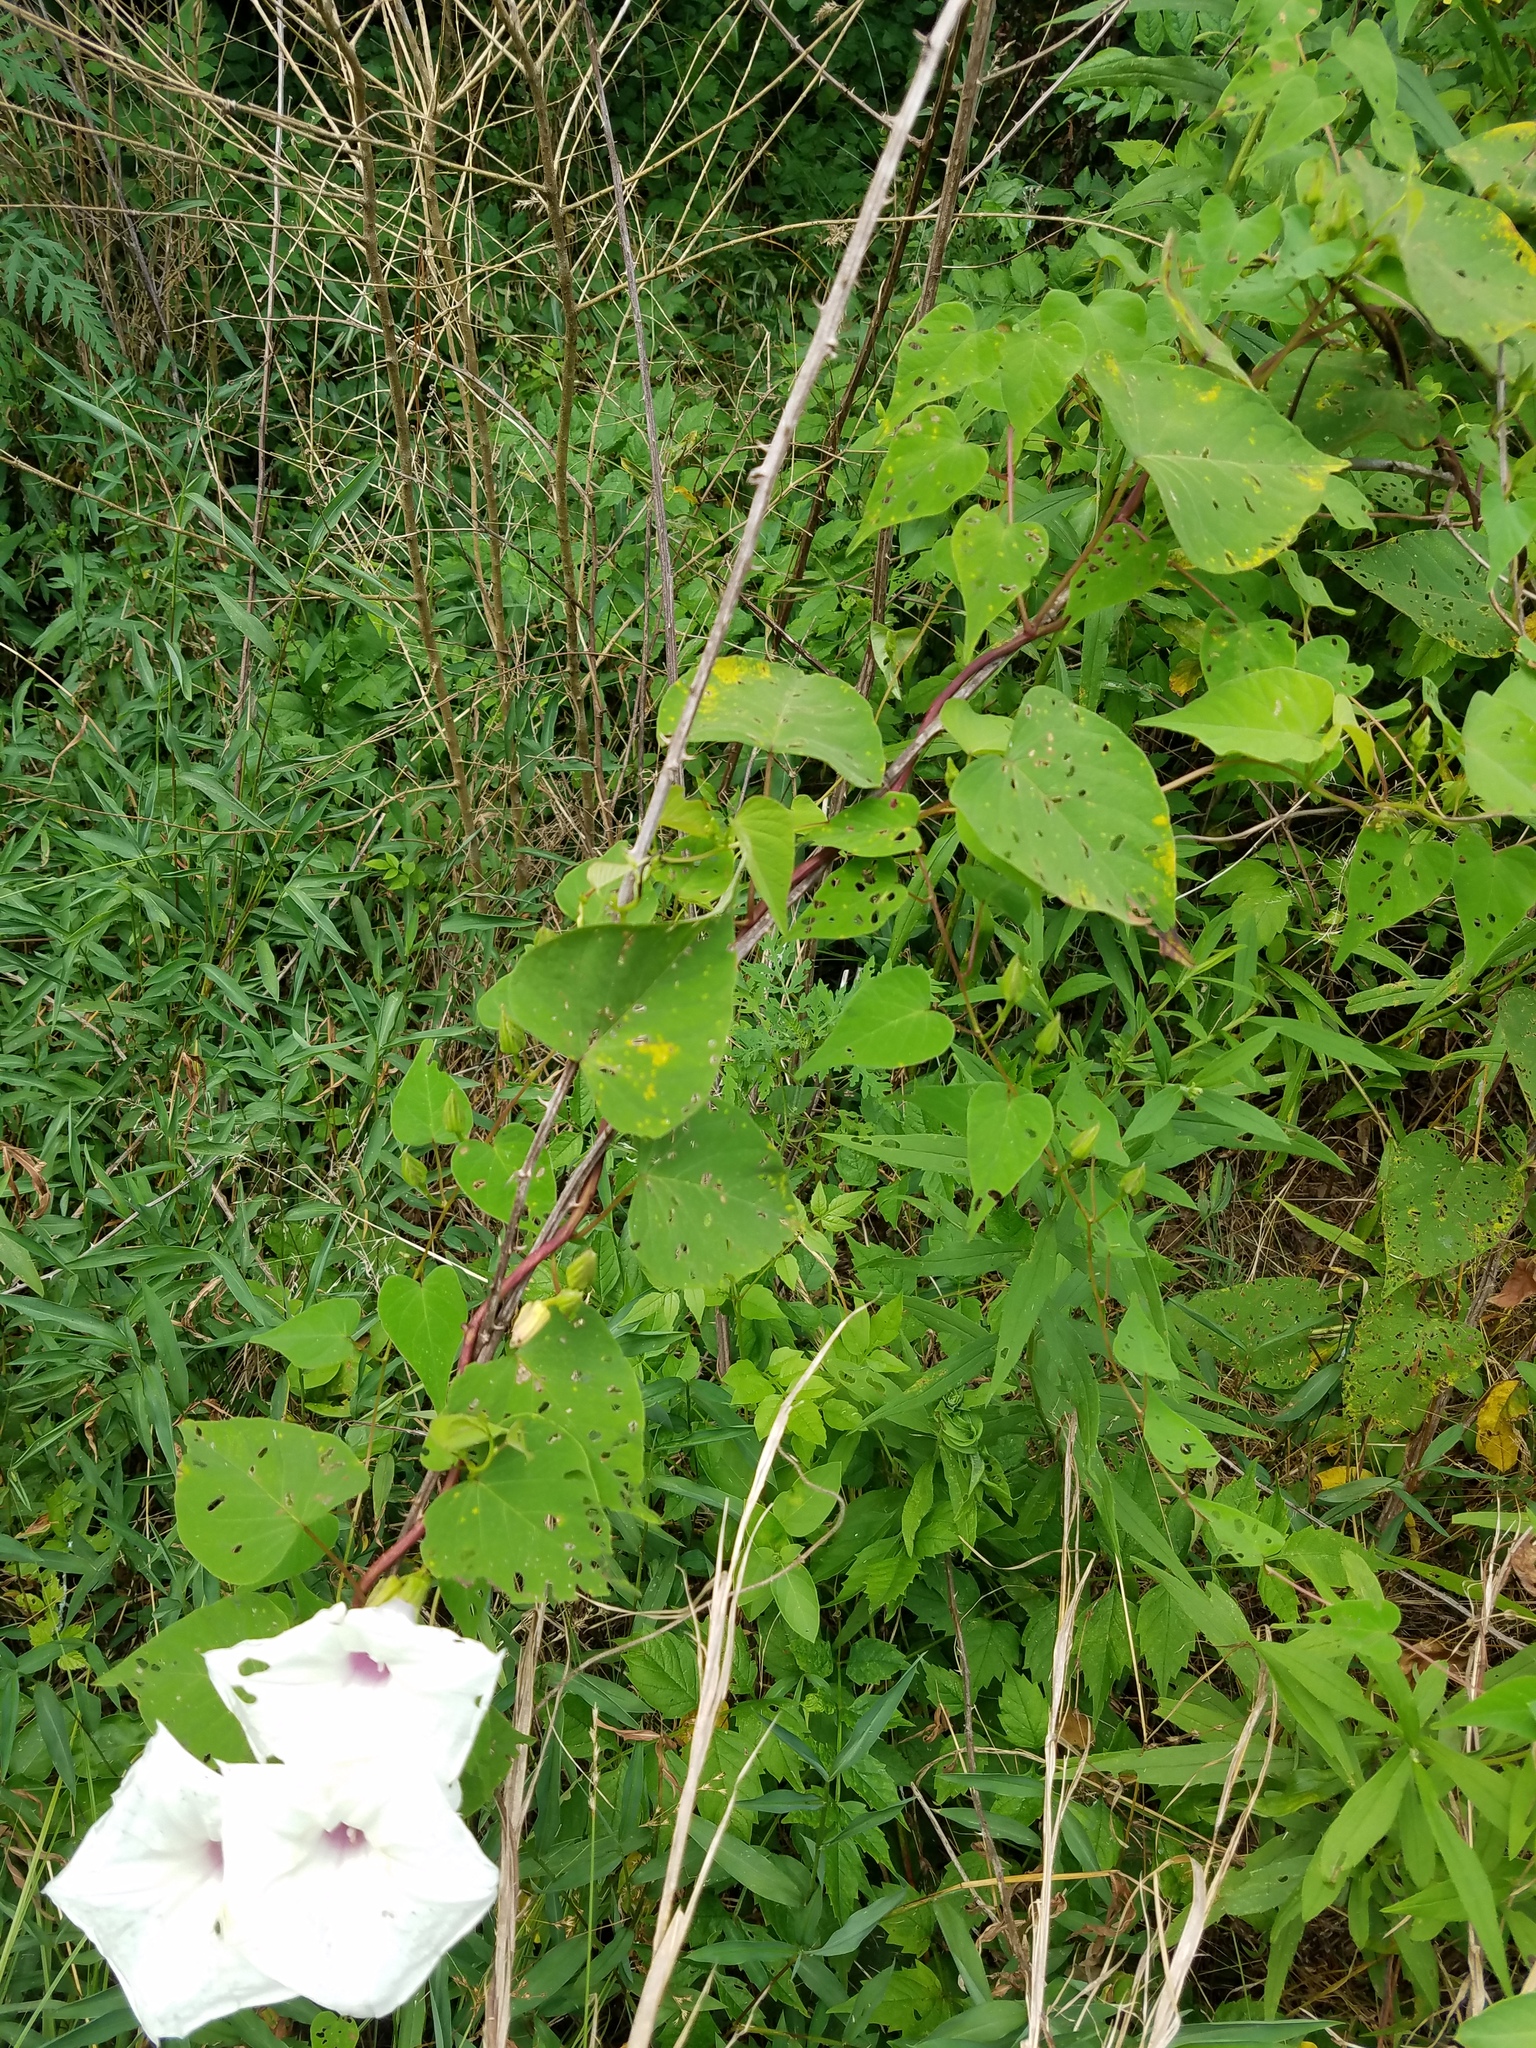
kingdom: Plantae
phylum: Tracheophyta
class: Magnoliopsida
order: Solanales
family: Convolvulaceae
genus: Ipomoea
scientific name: Ipomoea pandurata
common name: Man-of-the-earth
